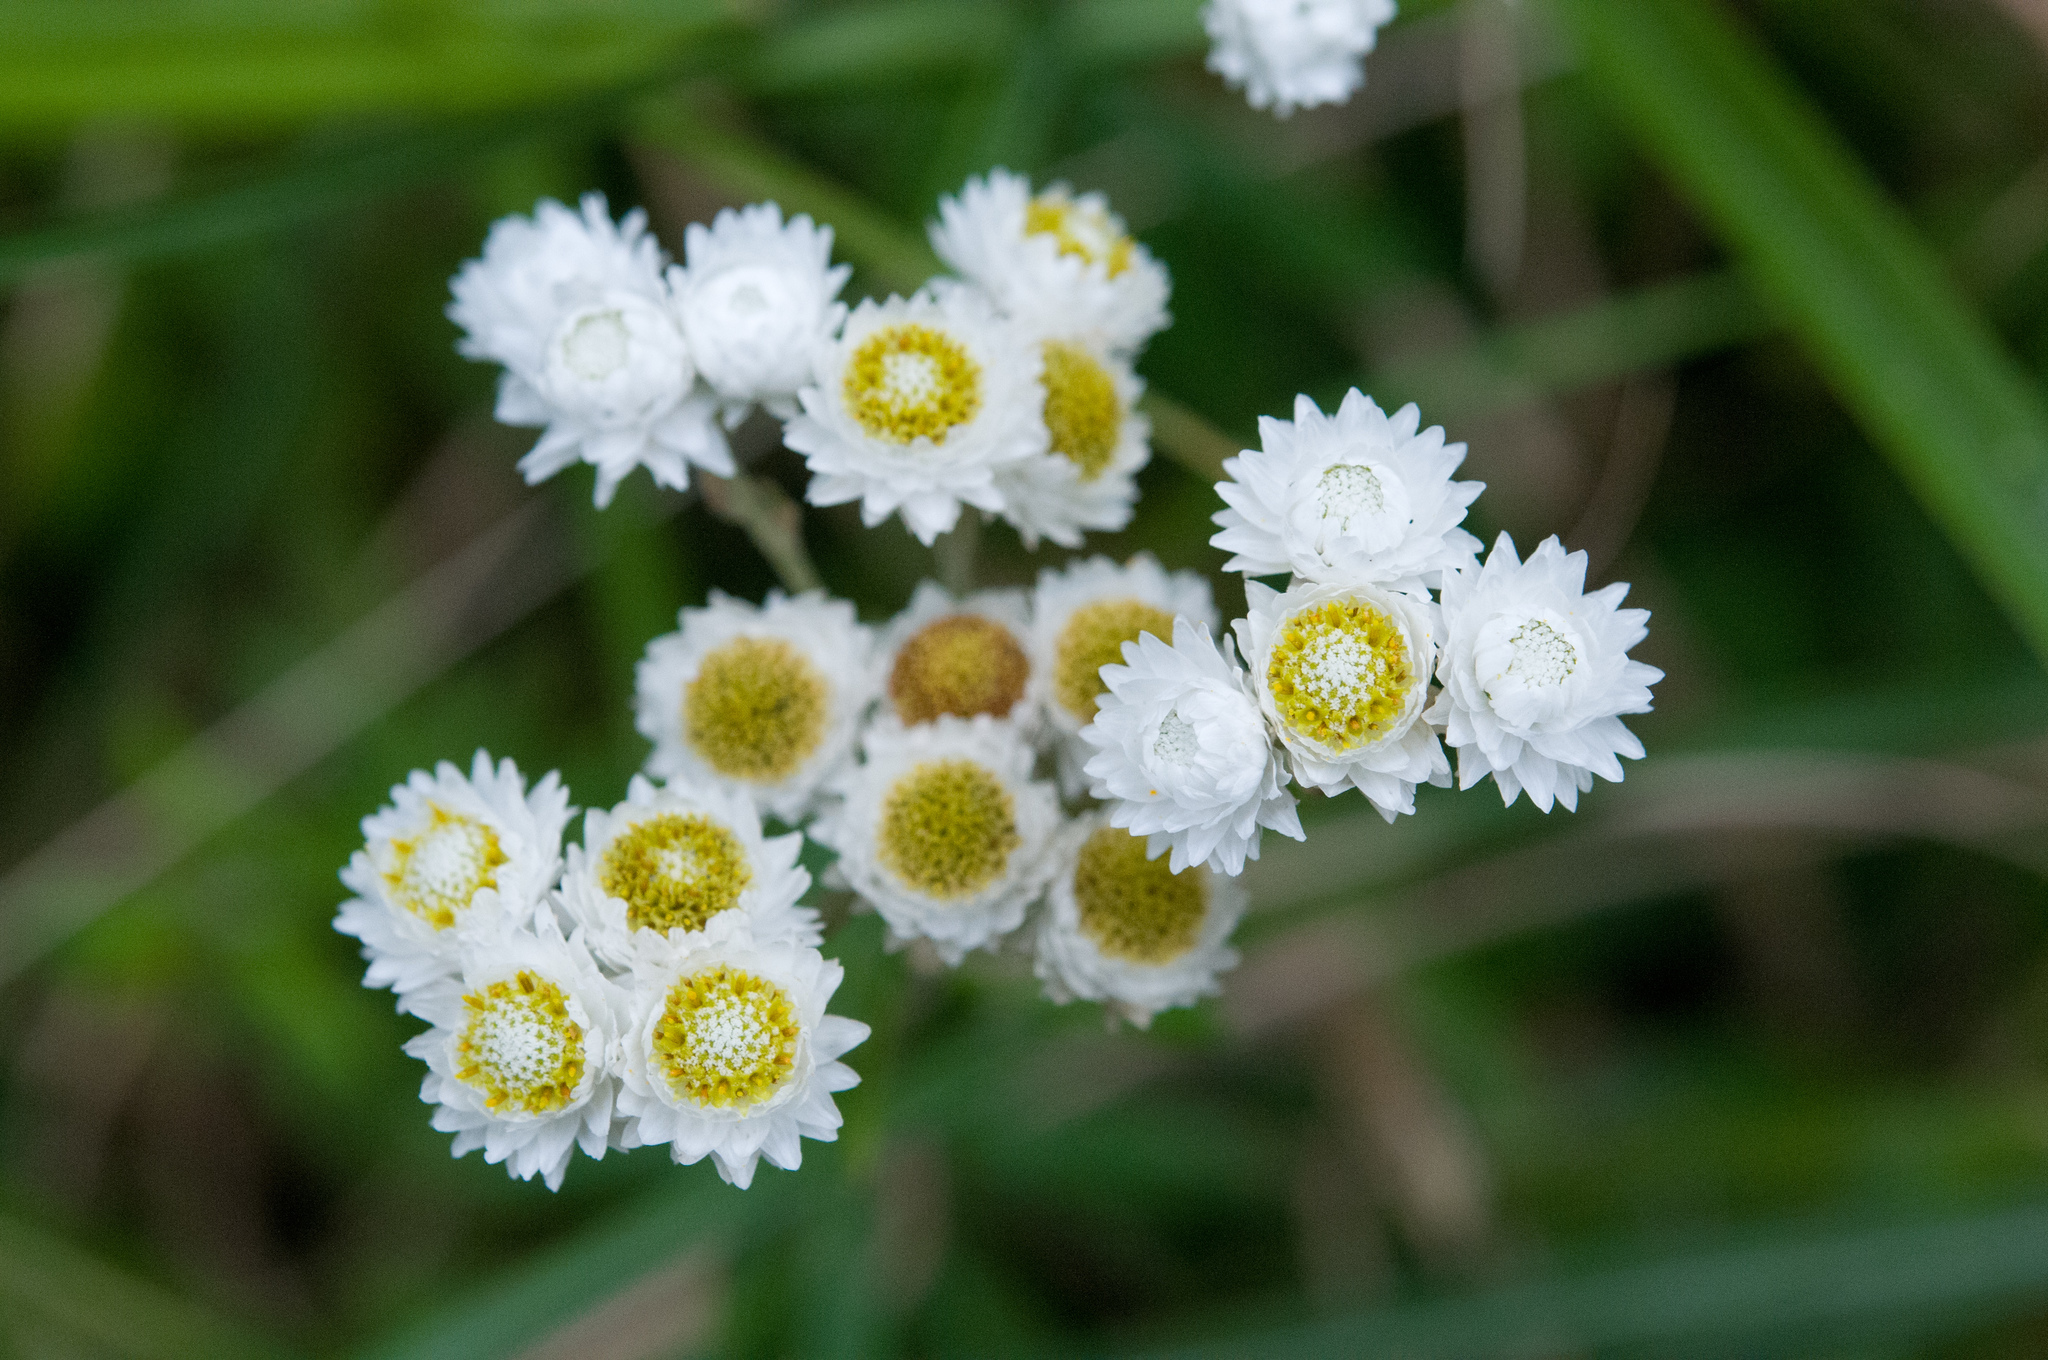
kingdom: Plantae
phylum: Tracheophyta
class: Magnoliopsida
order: Asterales
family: Asteraceae
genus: Anaphalis
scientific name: Anaphalis morrisonicola
